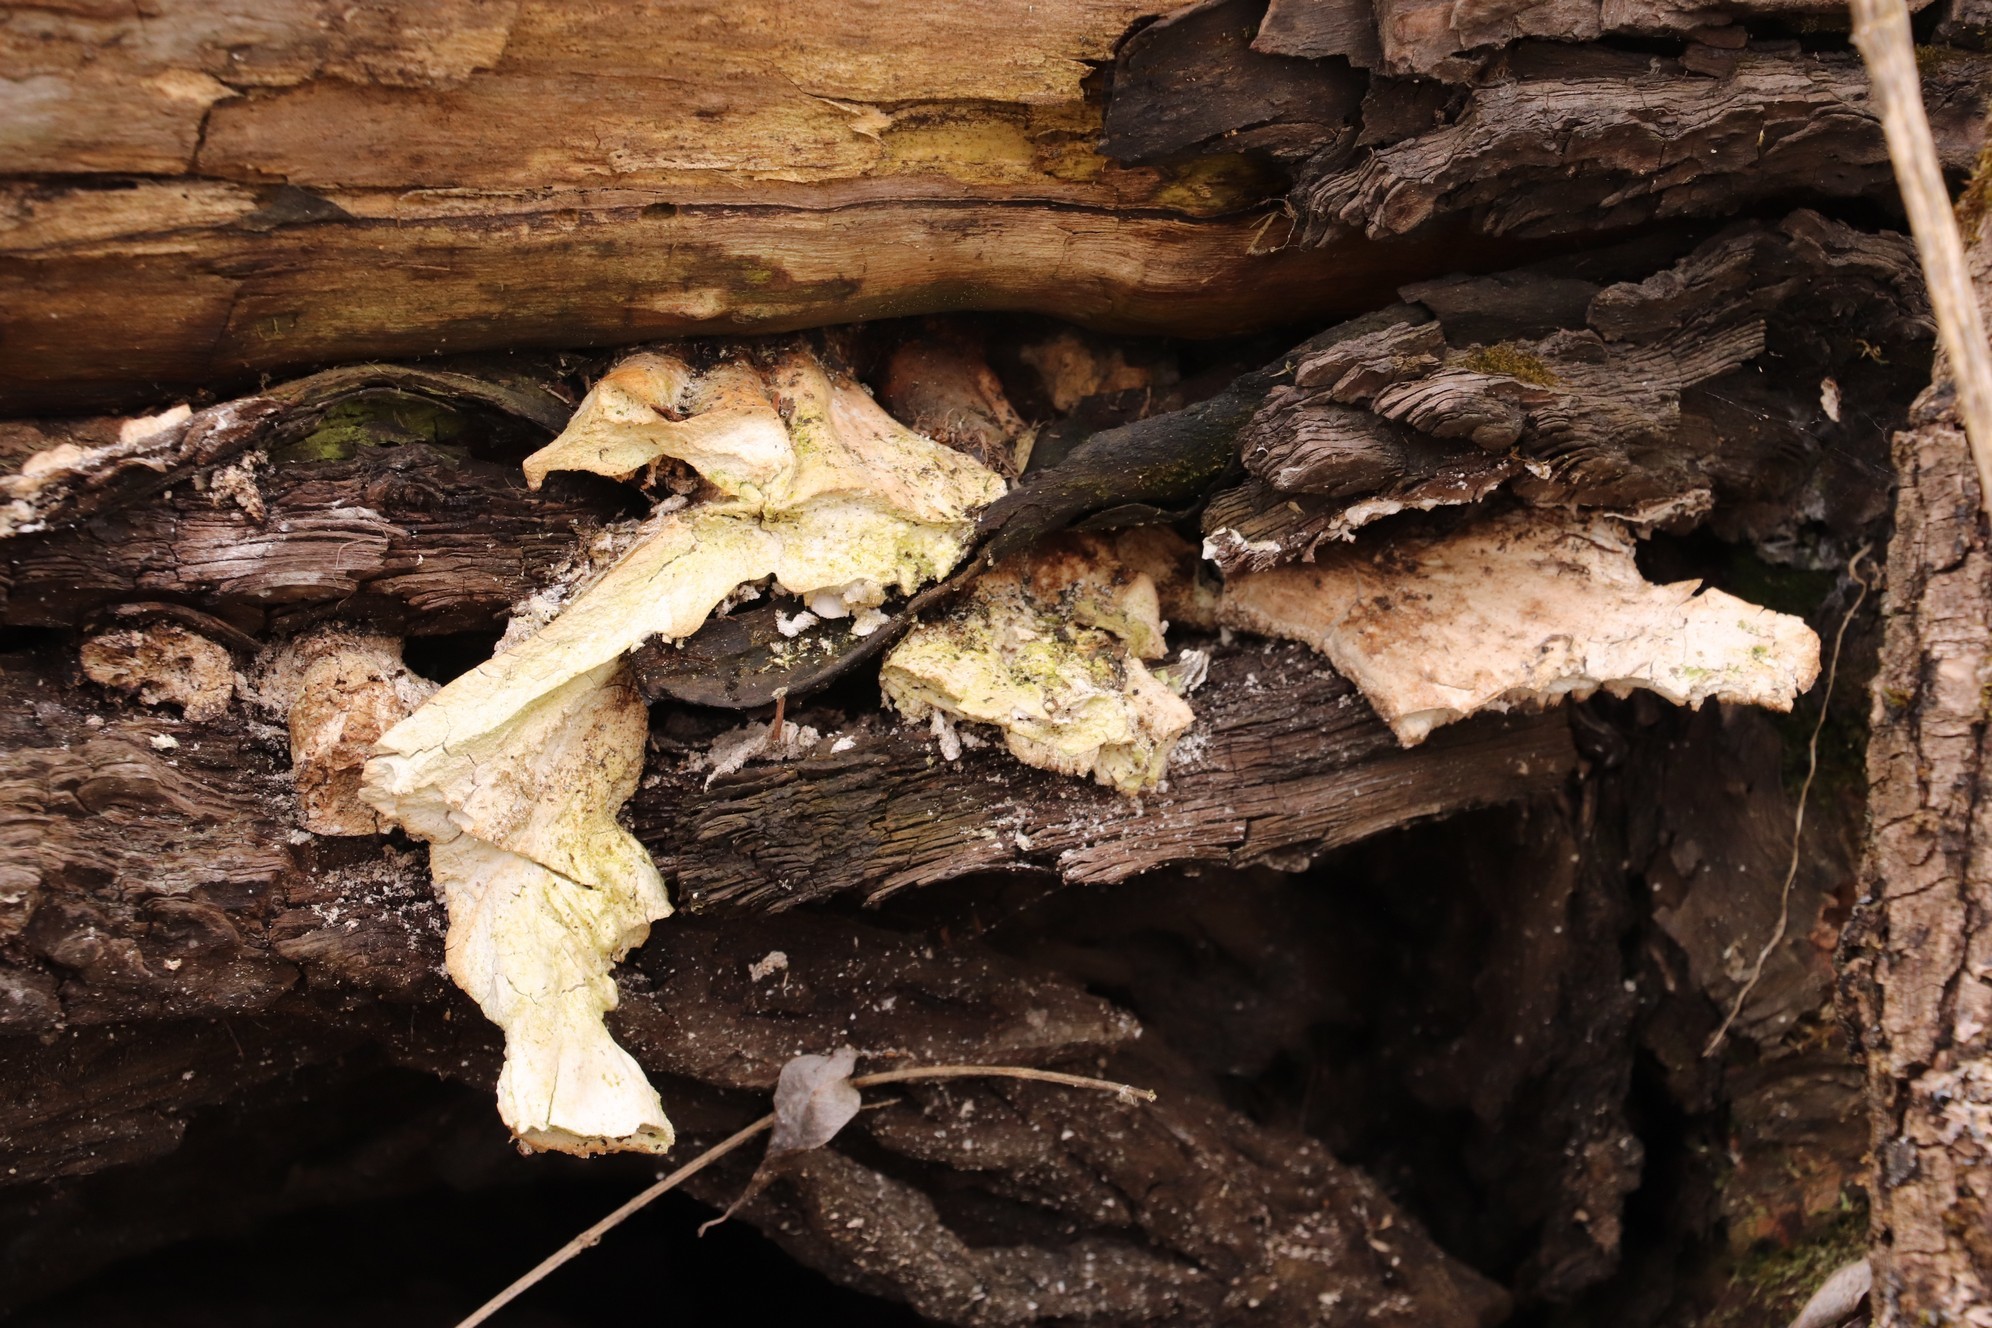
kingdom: Fungi
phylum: Basidiomycota
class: Agaricomycetes
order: Polyporales
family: Laetiporaceae
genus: Laetiporus
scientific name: Laetiporus sulphureus
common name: Chicken of the woods
